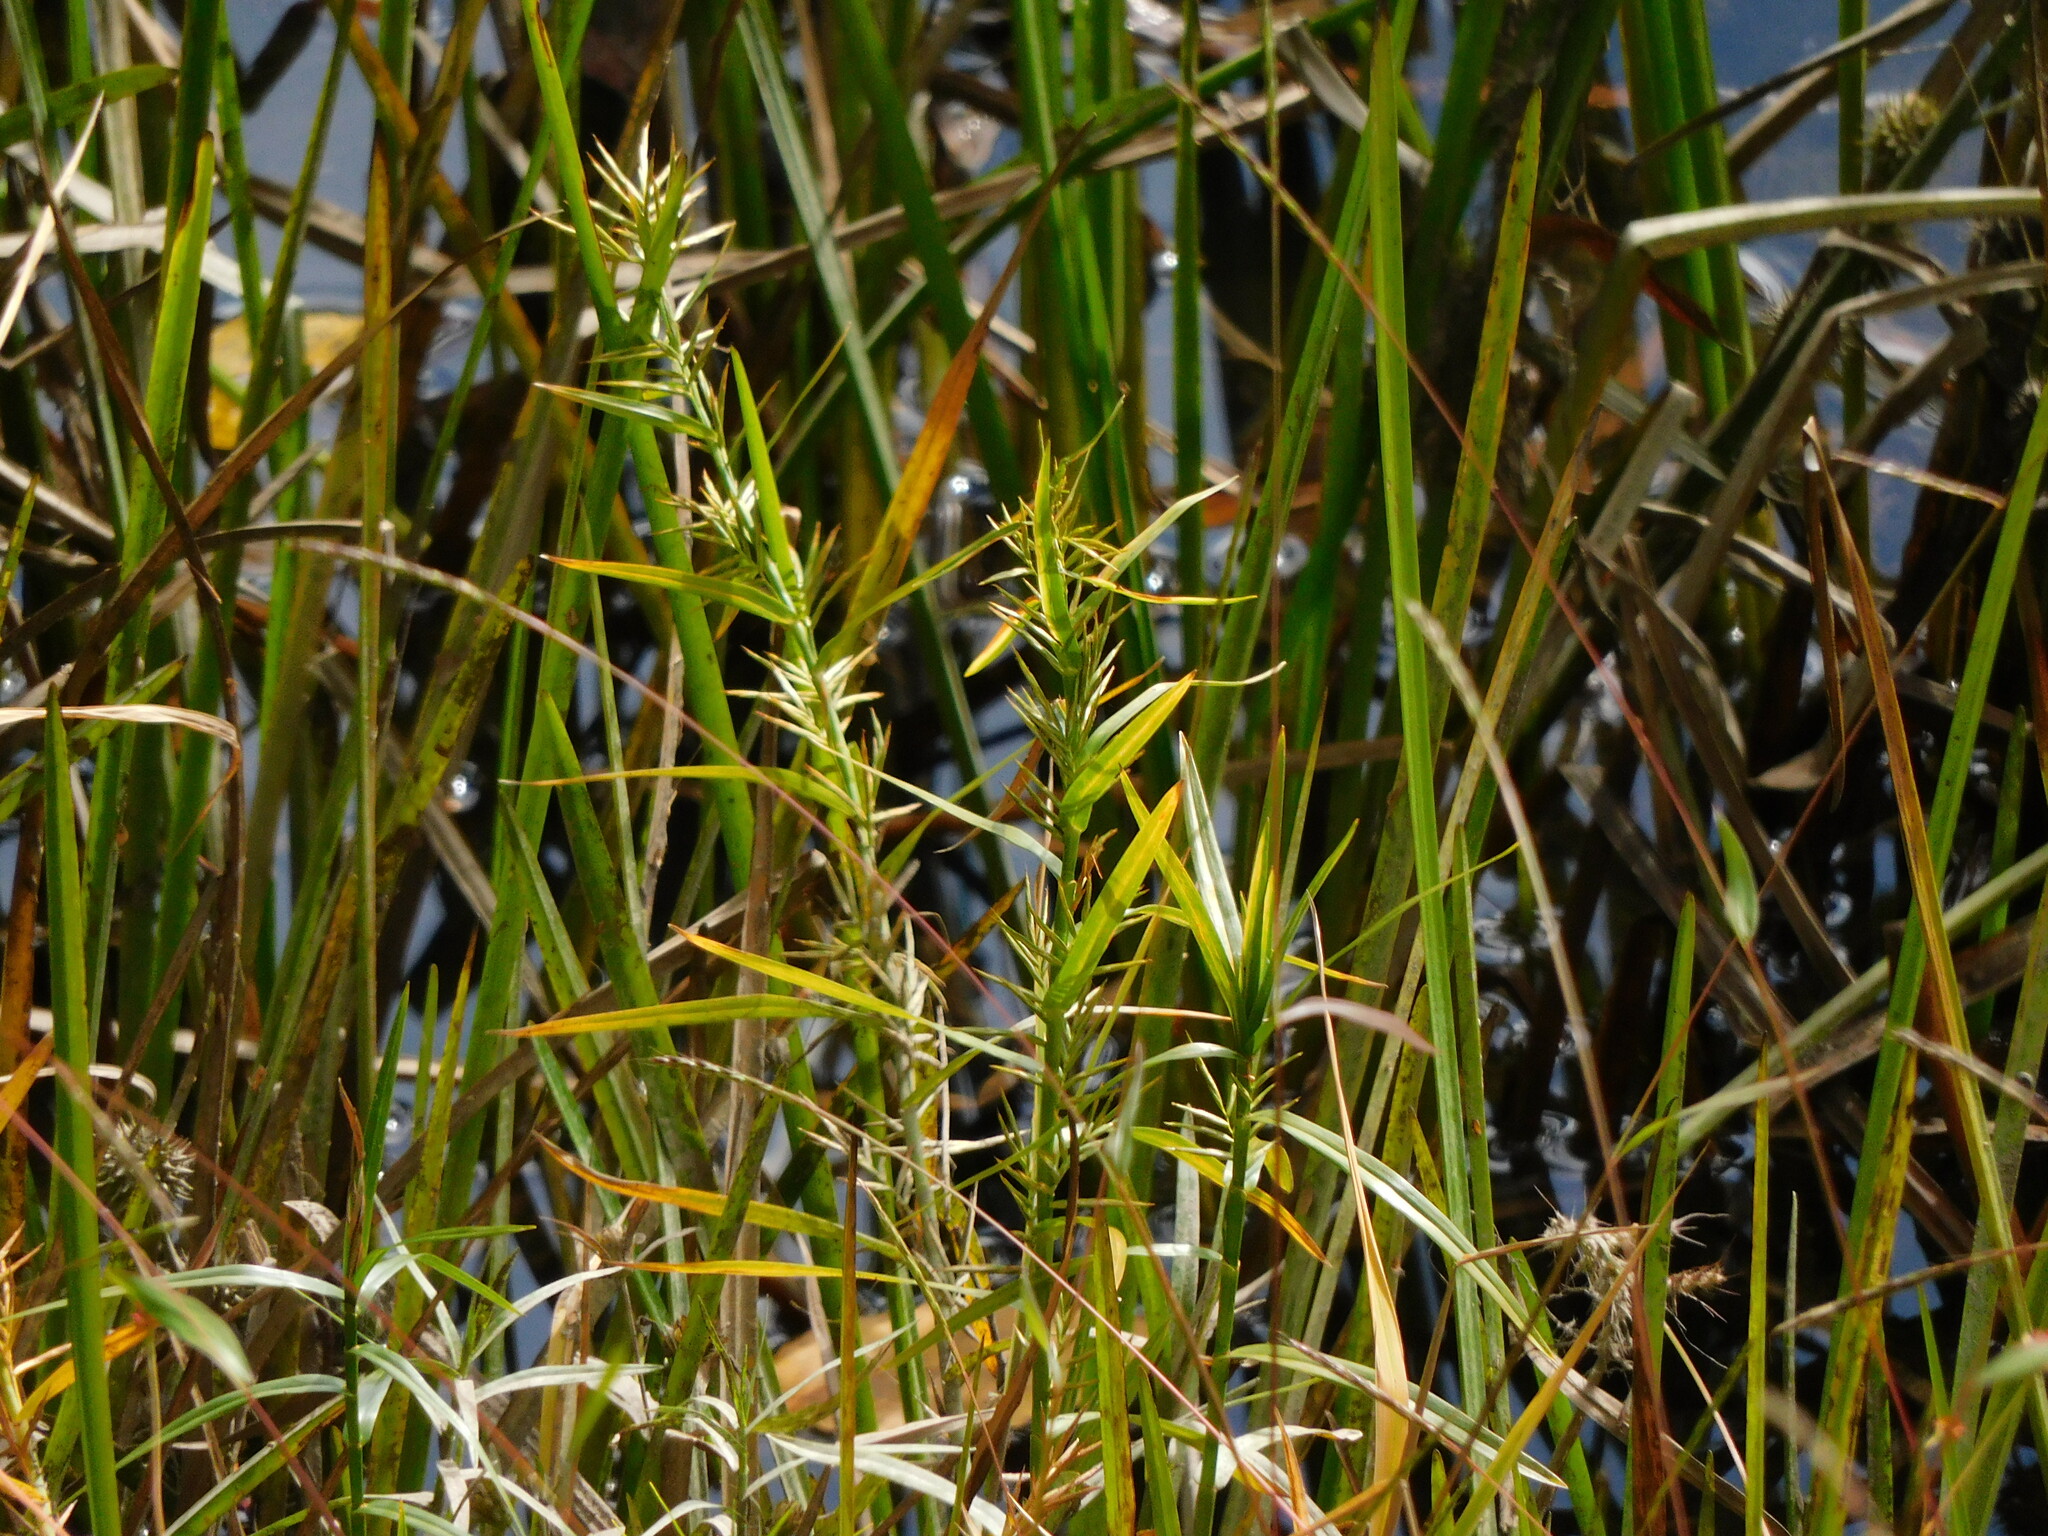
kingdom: Plantae
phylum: Tracheophyta
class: Liliopsida
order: Poales
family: Cyperaceae
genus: Dulichium
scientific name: Dulichium arundinaceum
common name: Three-way sedge
